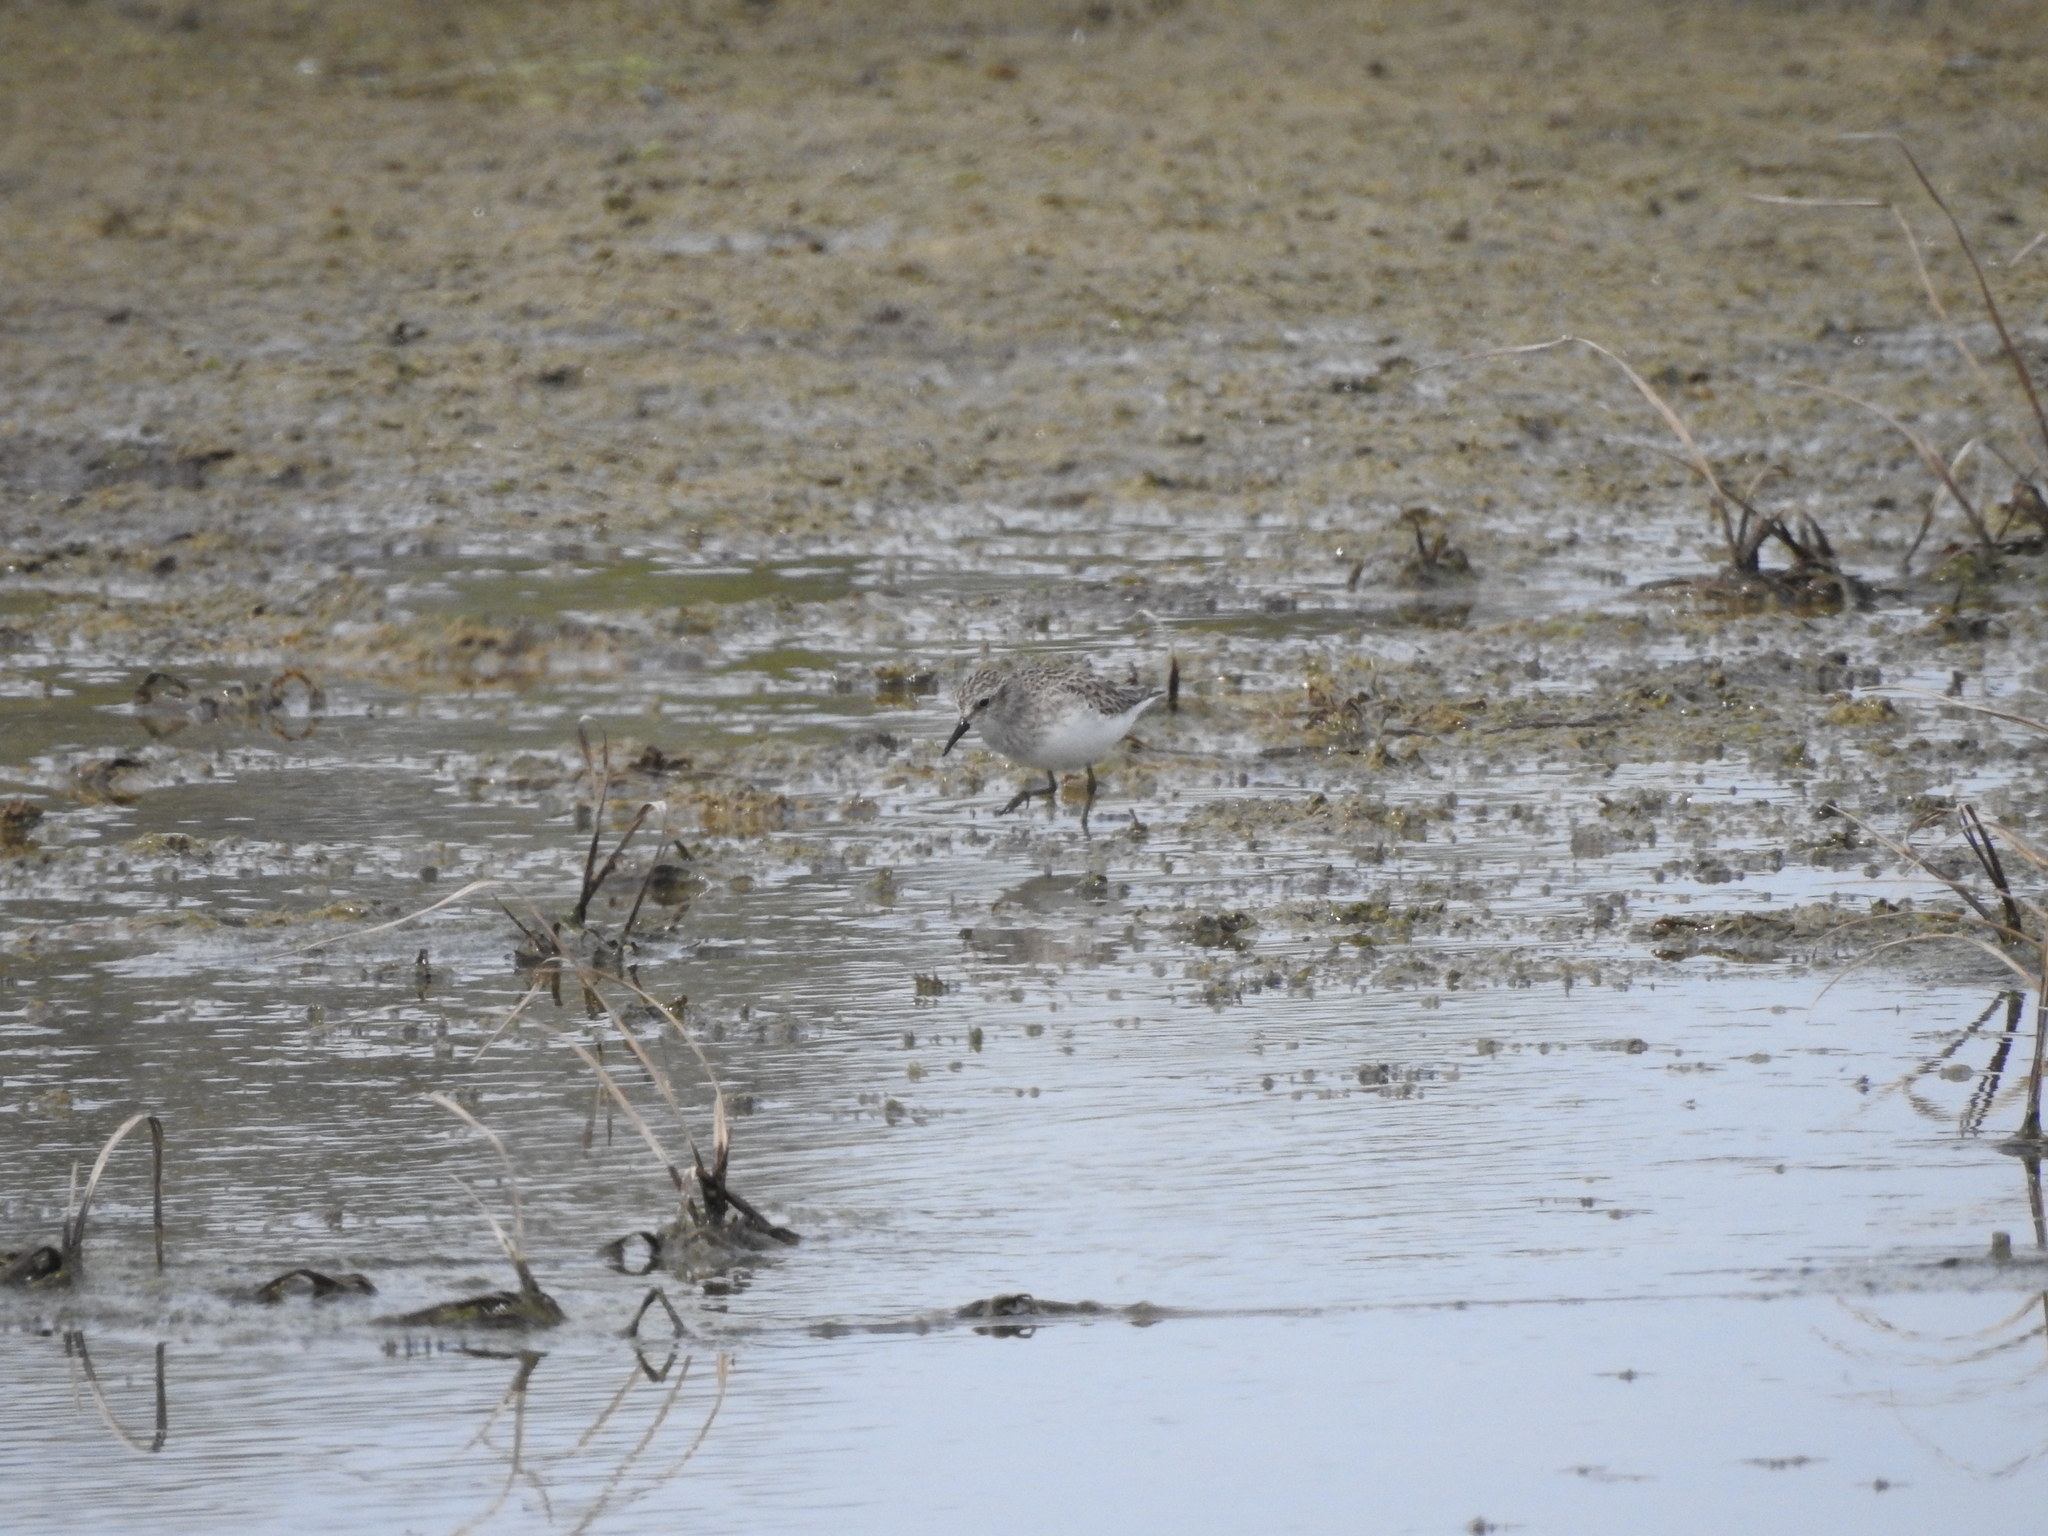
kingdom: Animalia
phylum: Chordata
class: Aves
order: Charadriiformes
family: Scolopacidae
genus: Calidris
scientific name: Calidris minutilla
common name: Least sandpiper
